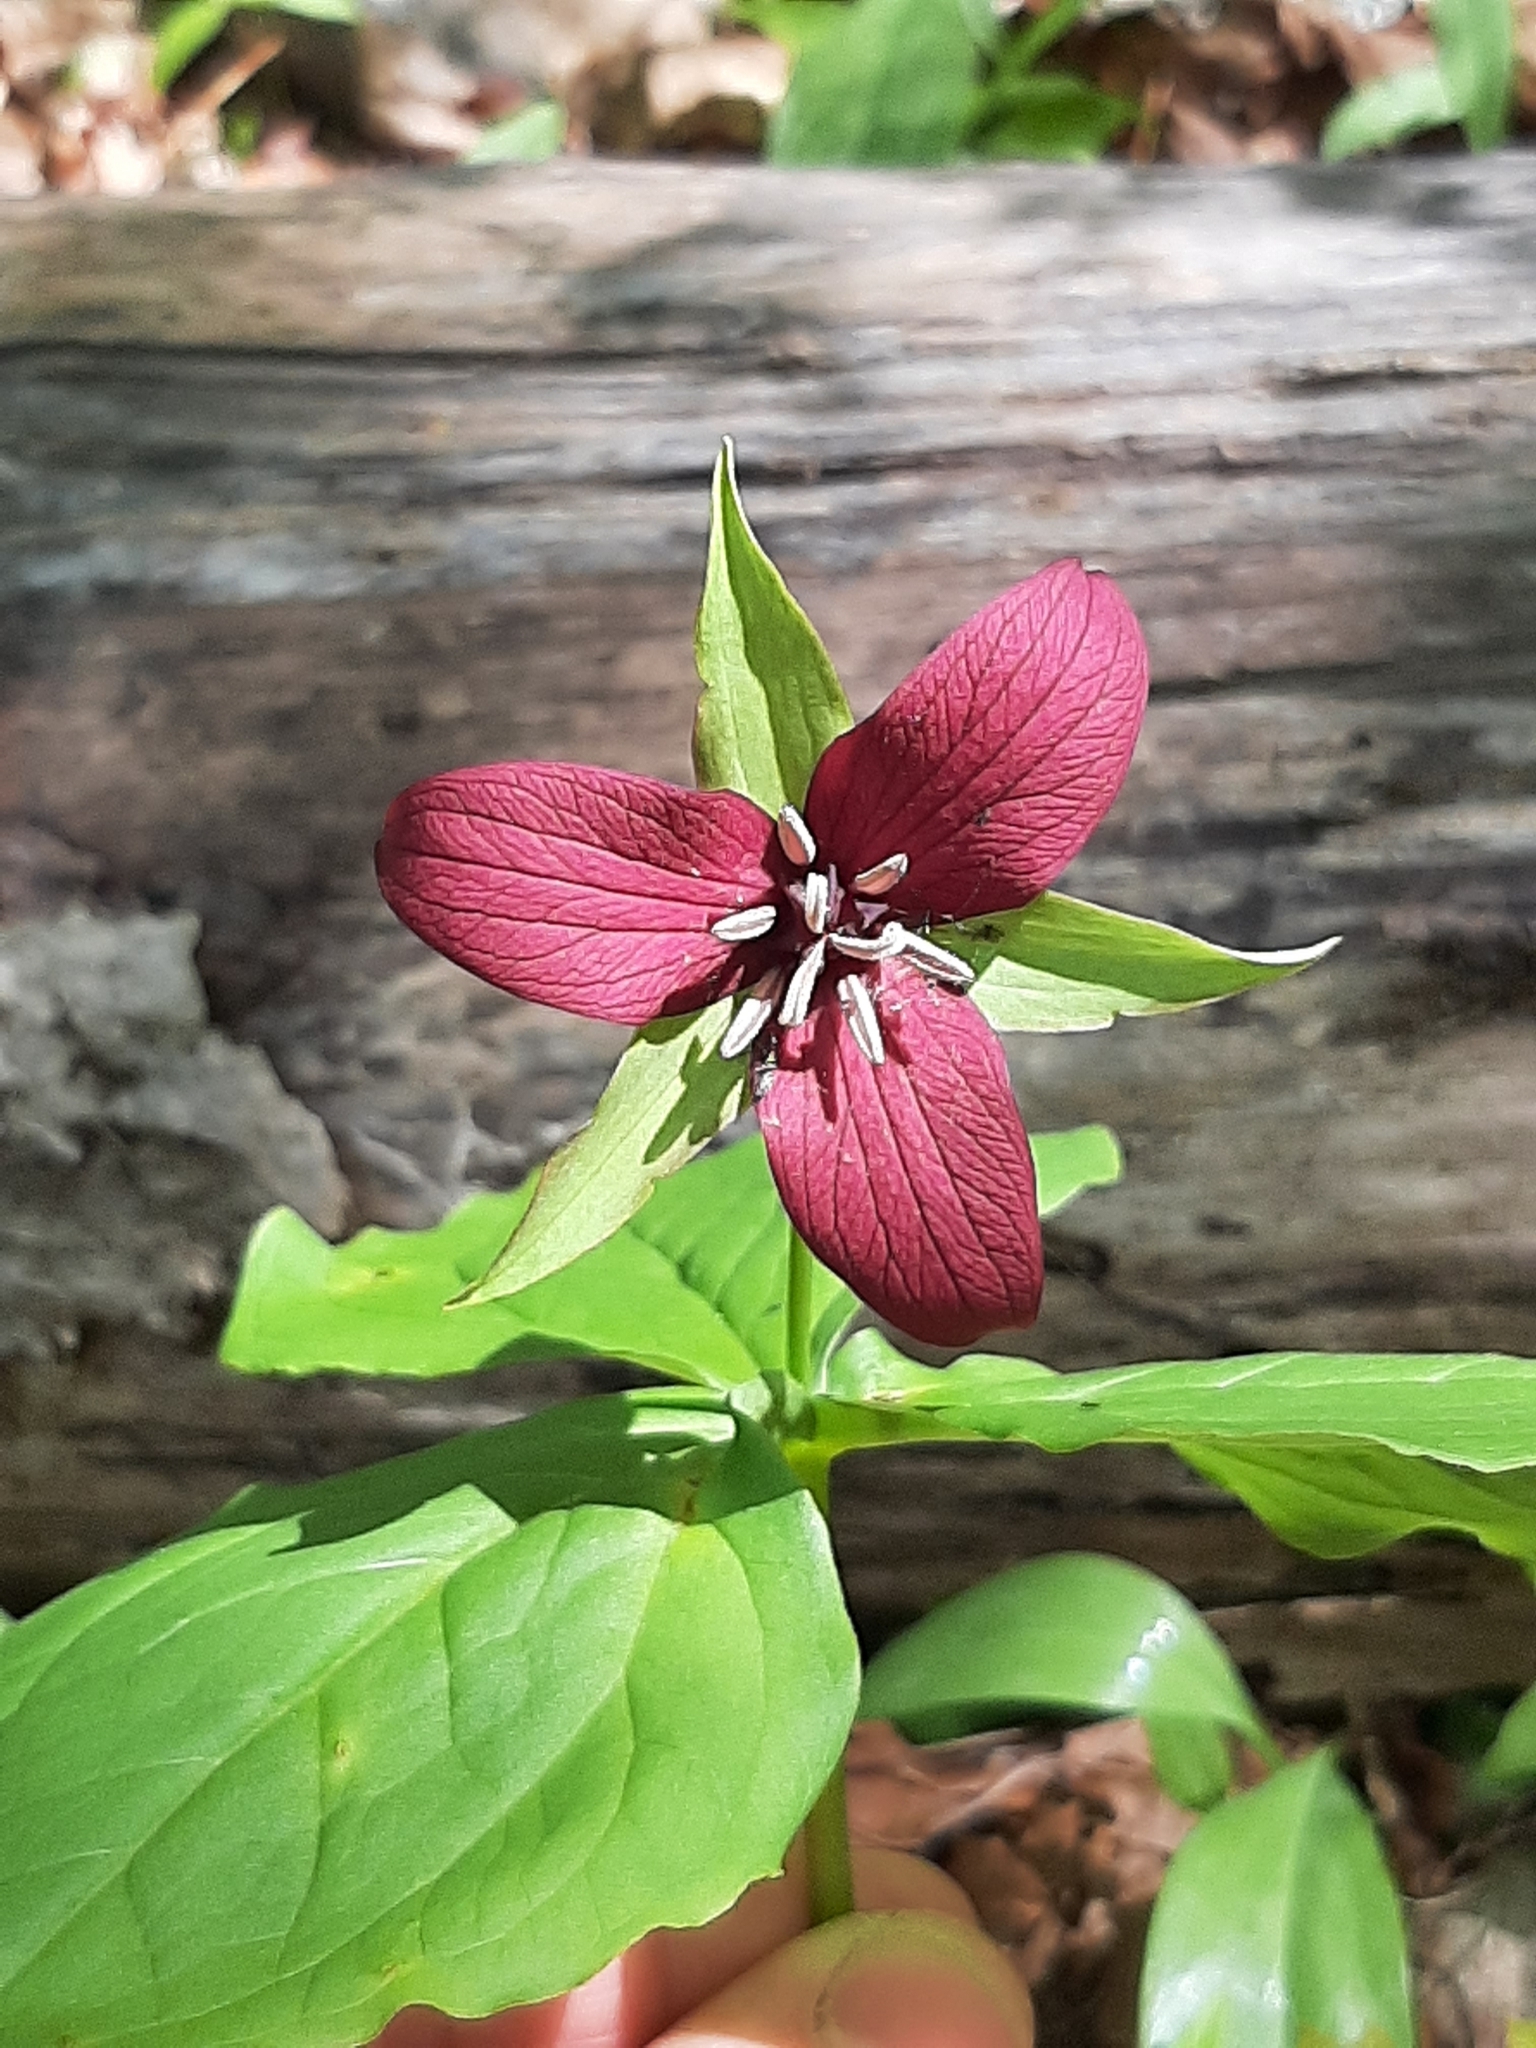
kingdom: Plantae
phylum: Tracheophyta
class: Liliopsida
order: Liliales
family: Melanthiaceae
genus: Trillium
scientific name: Trillium erectum
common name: Purple trillium
